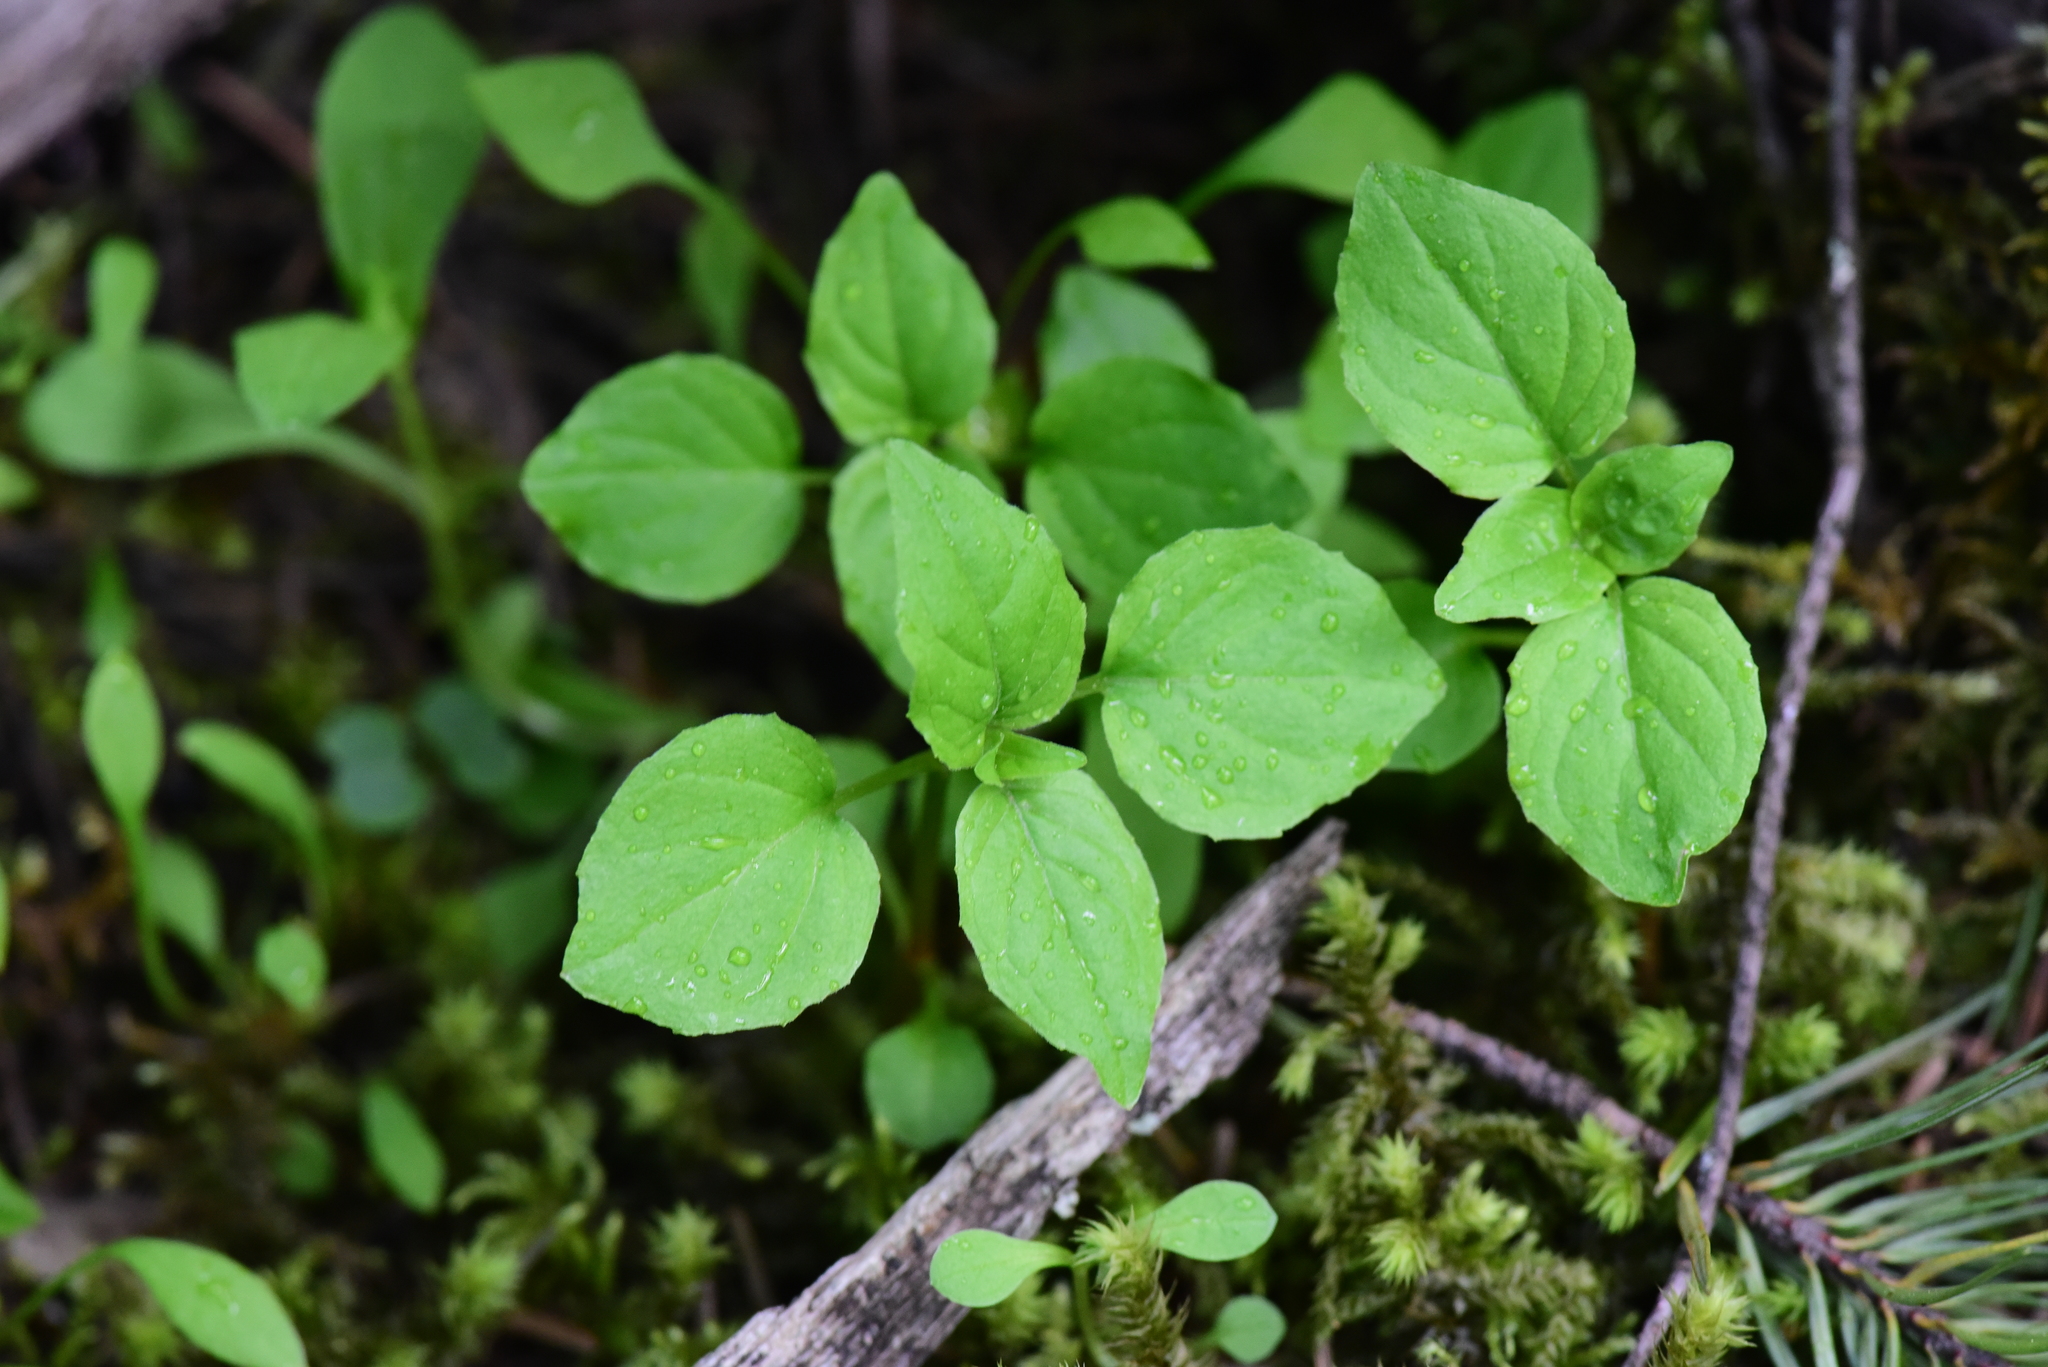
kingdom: Plantae
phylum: Tracheophyta
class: Magnoliopsida
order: Myrtales
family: Onagraceae
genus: Circaea
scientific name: Circaea alpina
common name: Alpine enchanter's-nightshade
